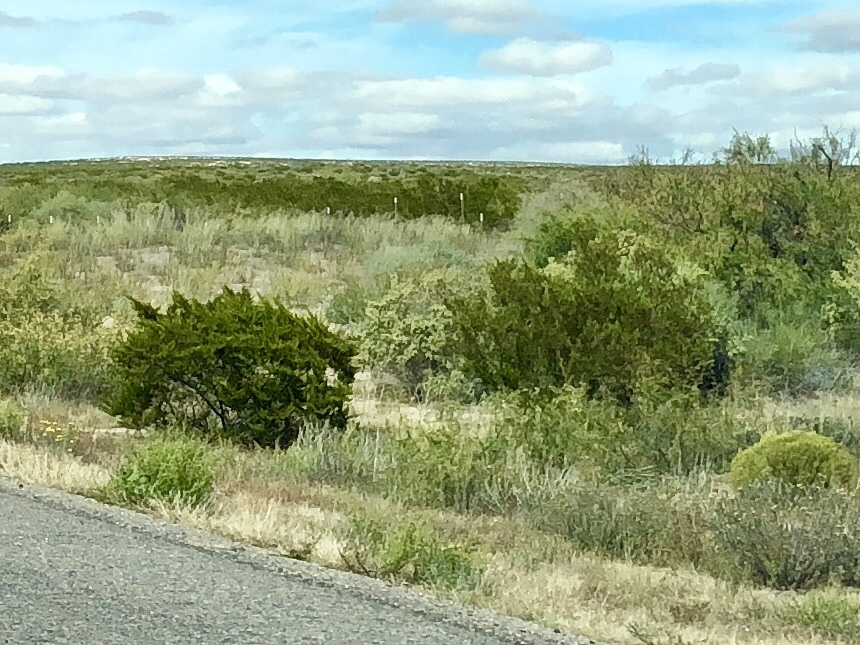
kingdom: Plantae
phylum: Tracheophyta
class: Magnoliopsida
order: Zygophyllales
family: Zygophyllaceae
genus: Larrea
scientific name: Larrea tridentata
